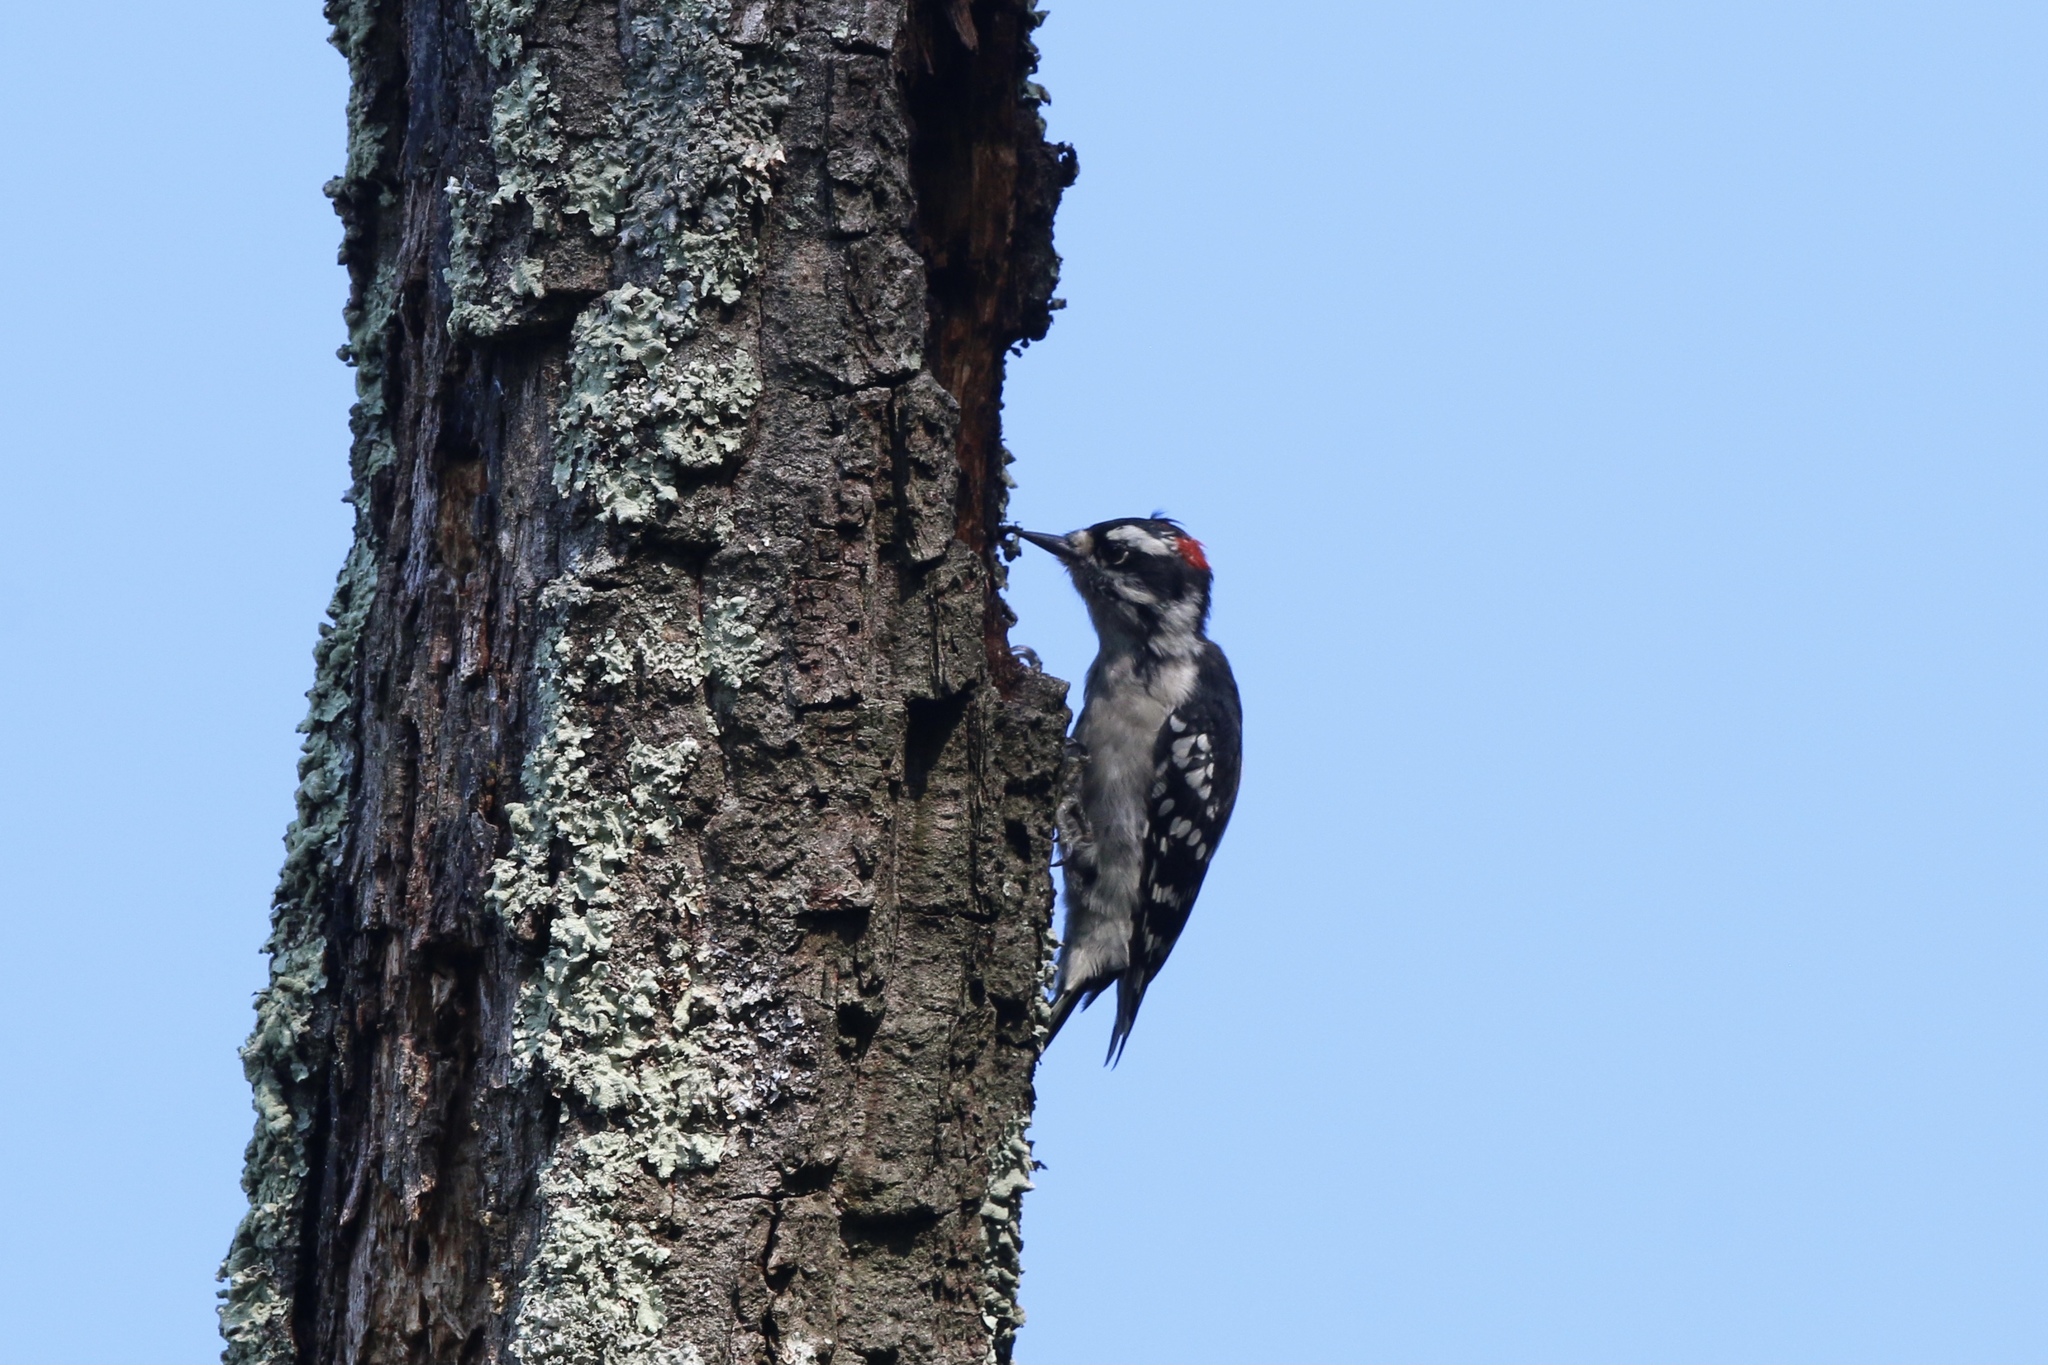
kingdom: Animalia
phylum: Chordata
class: Aves
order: Piciformes
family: Picidae
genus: Dryobates
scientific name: Dryobates pubescens
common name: Downy woodpecker
